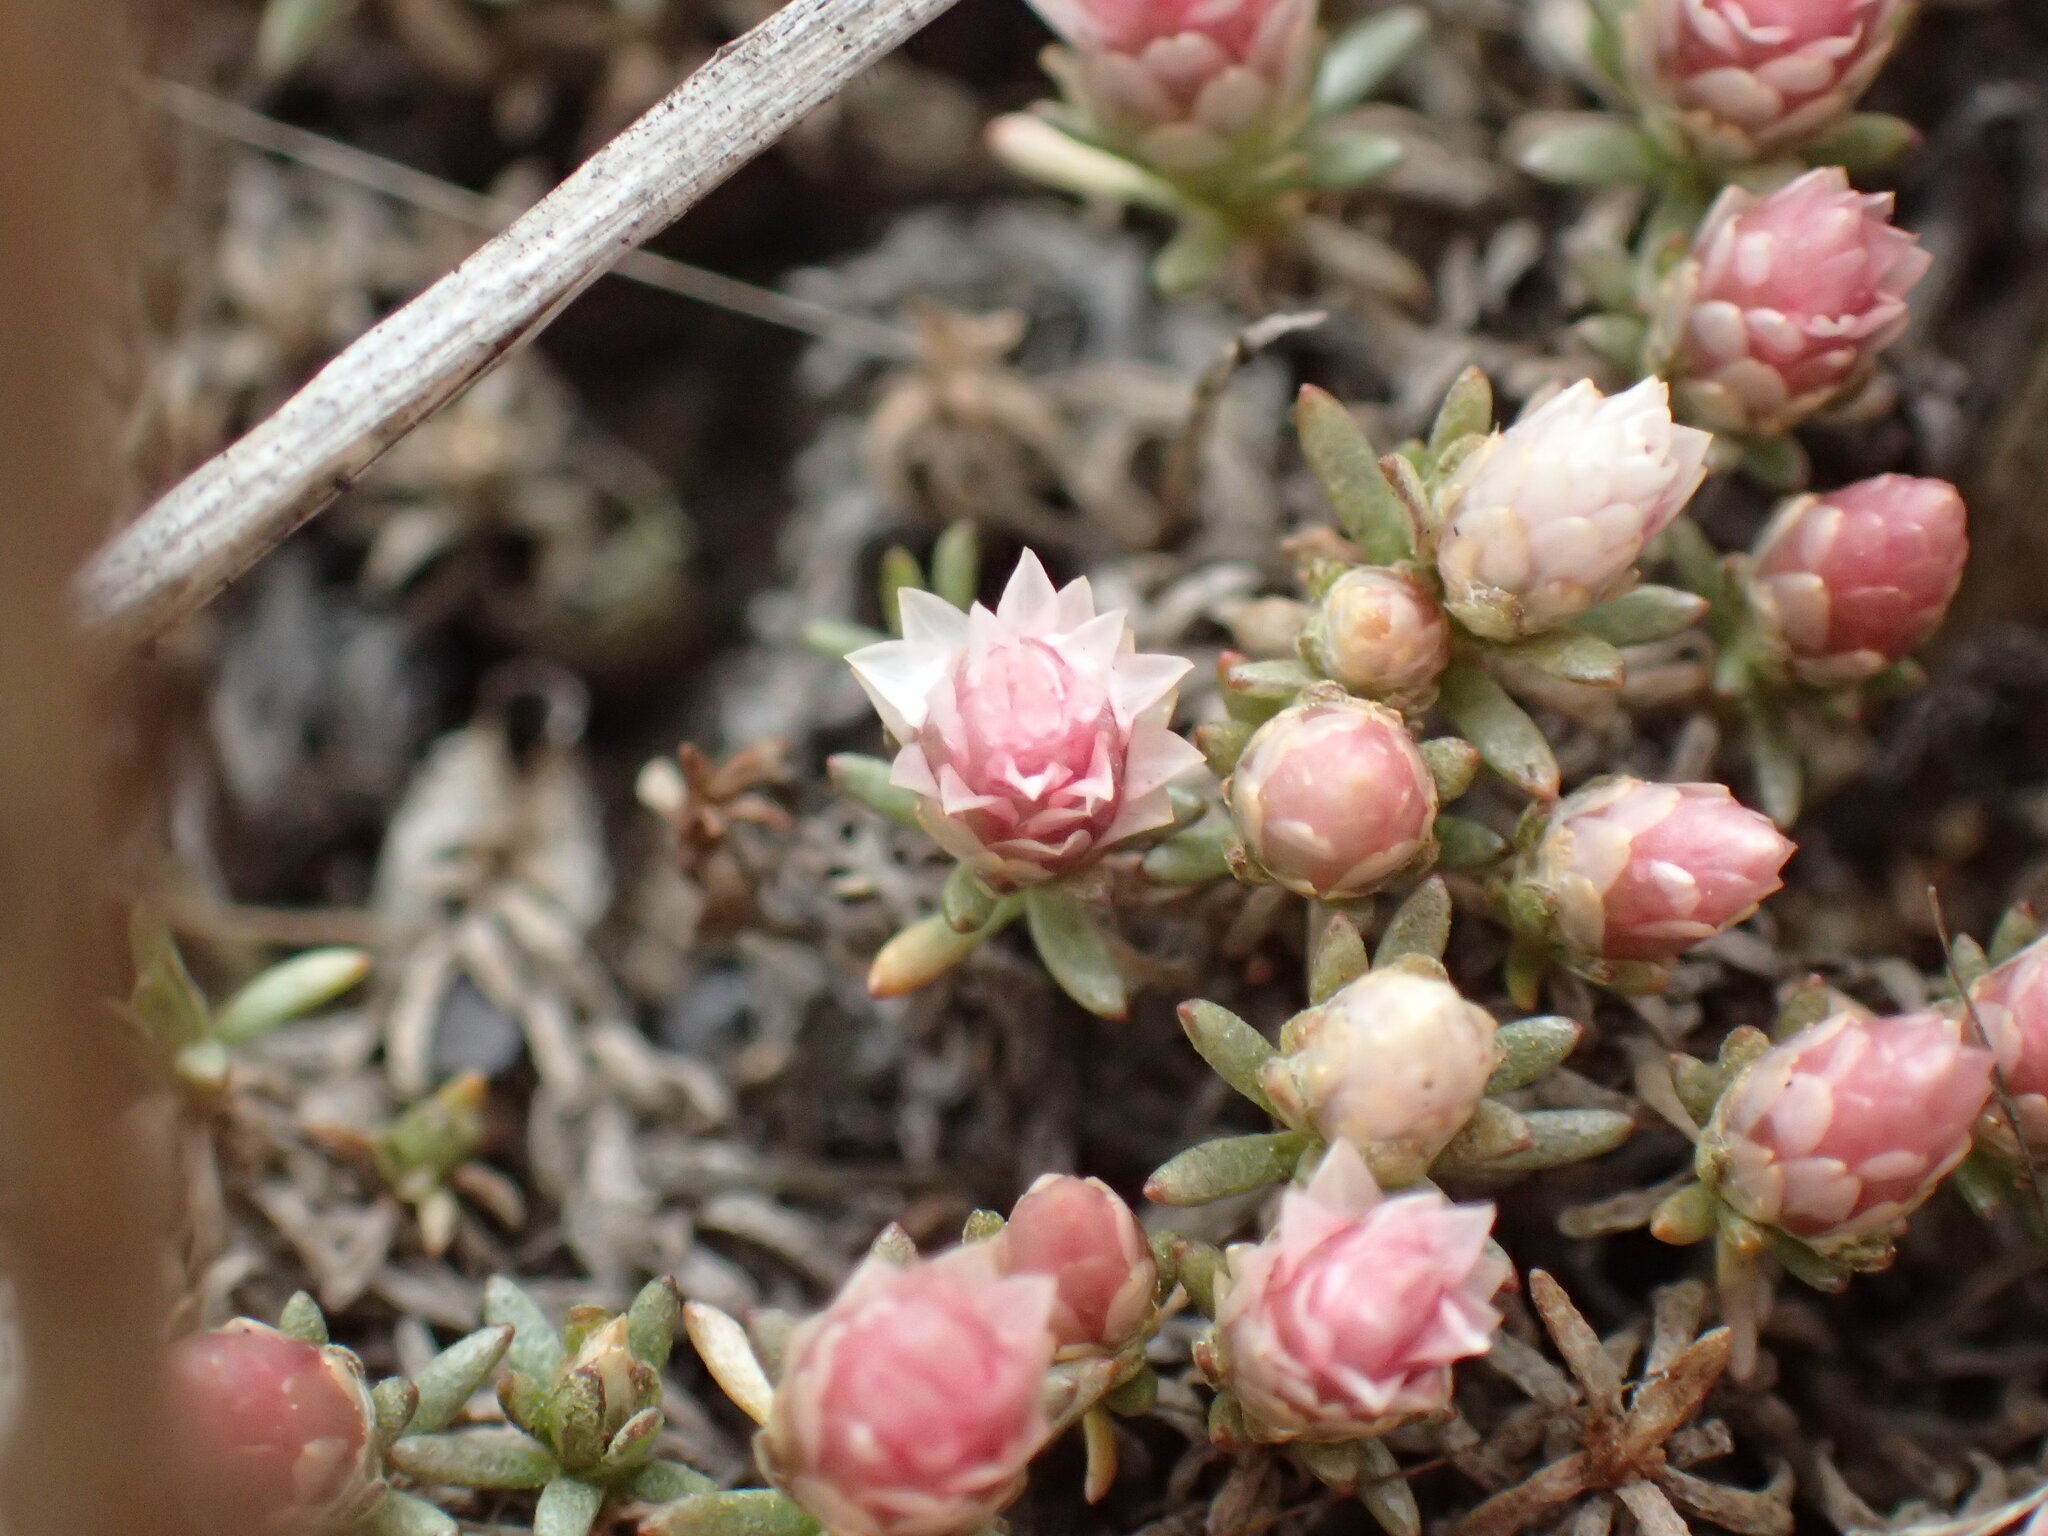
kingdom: Plantae
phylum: Tracheophyta
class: Magnoliopsida
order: Asterales
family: Asteraceae
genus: Helichrysum
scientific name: Helichrysum caespititium
